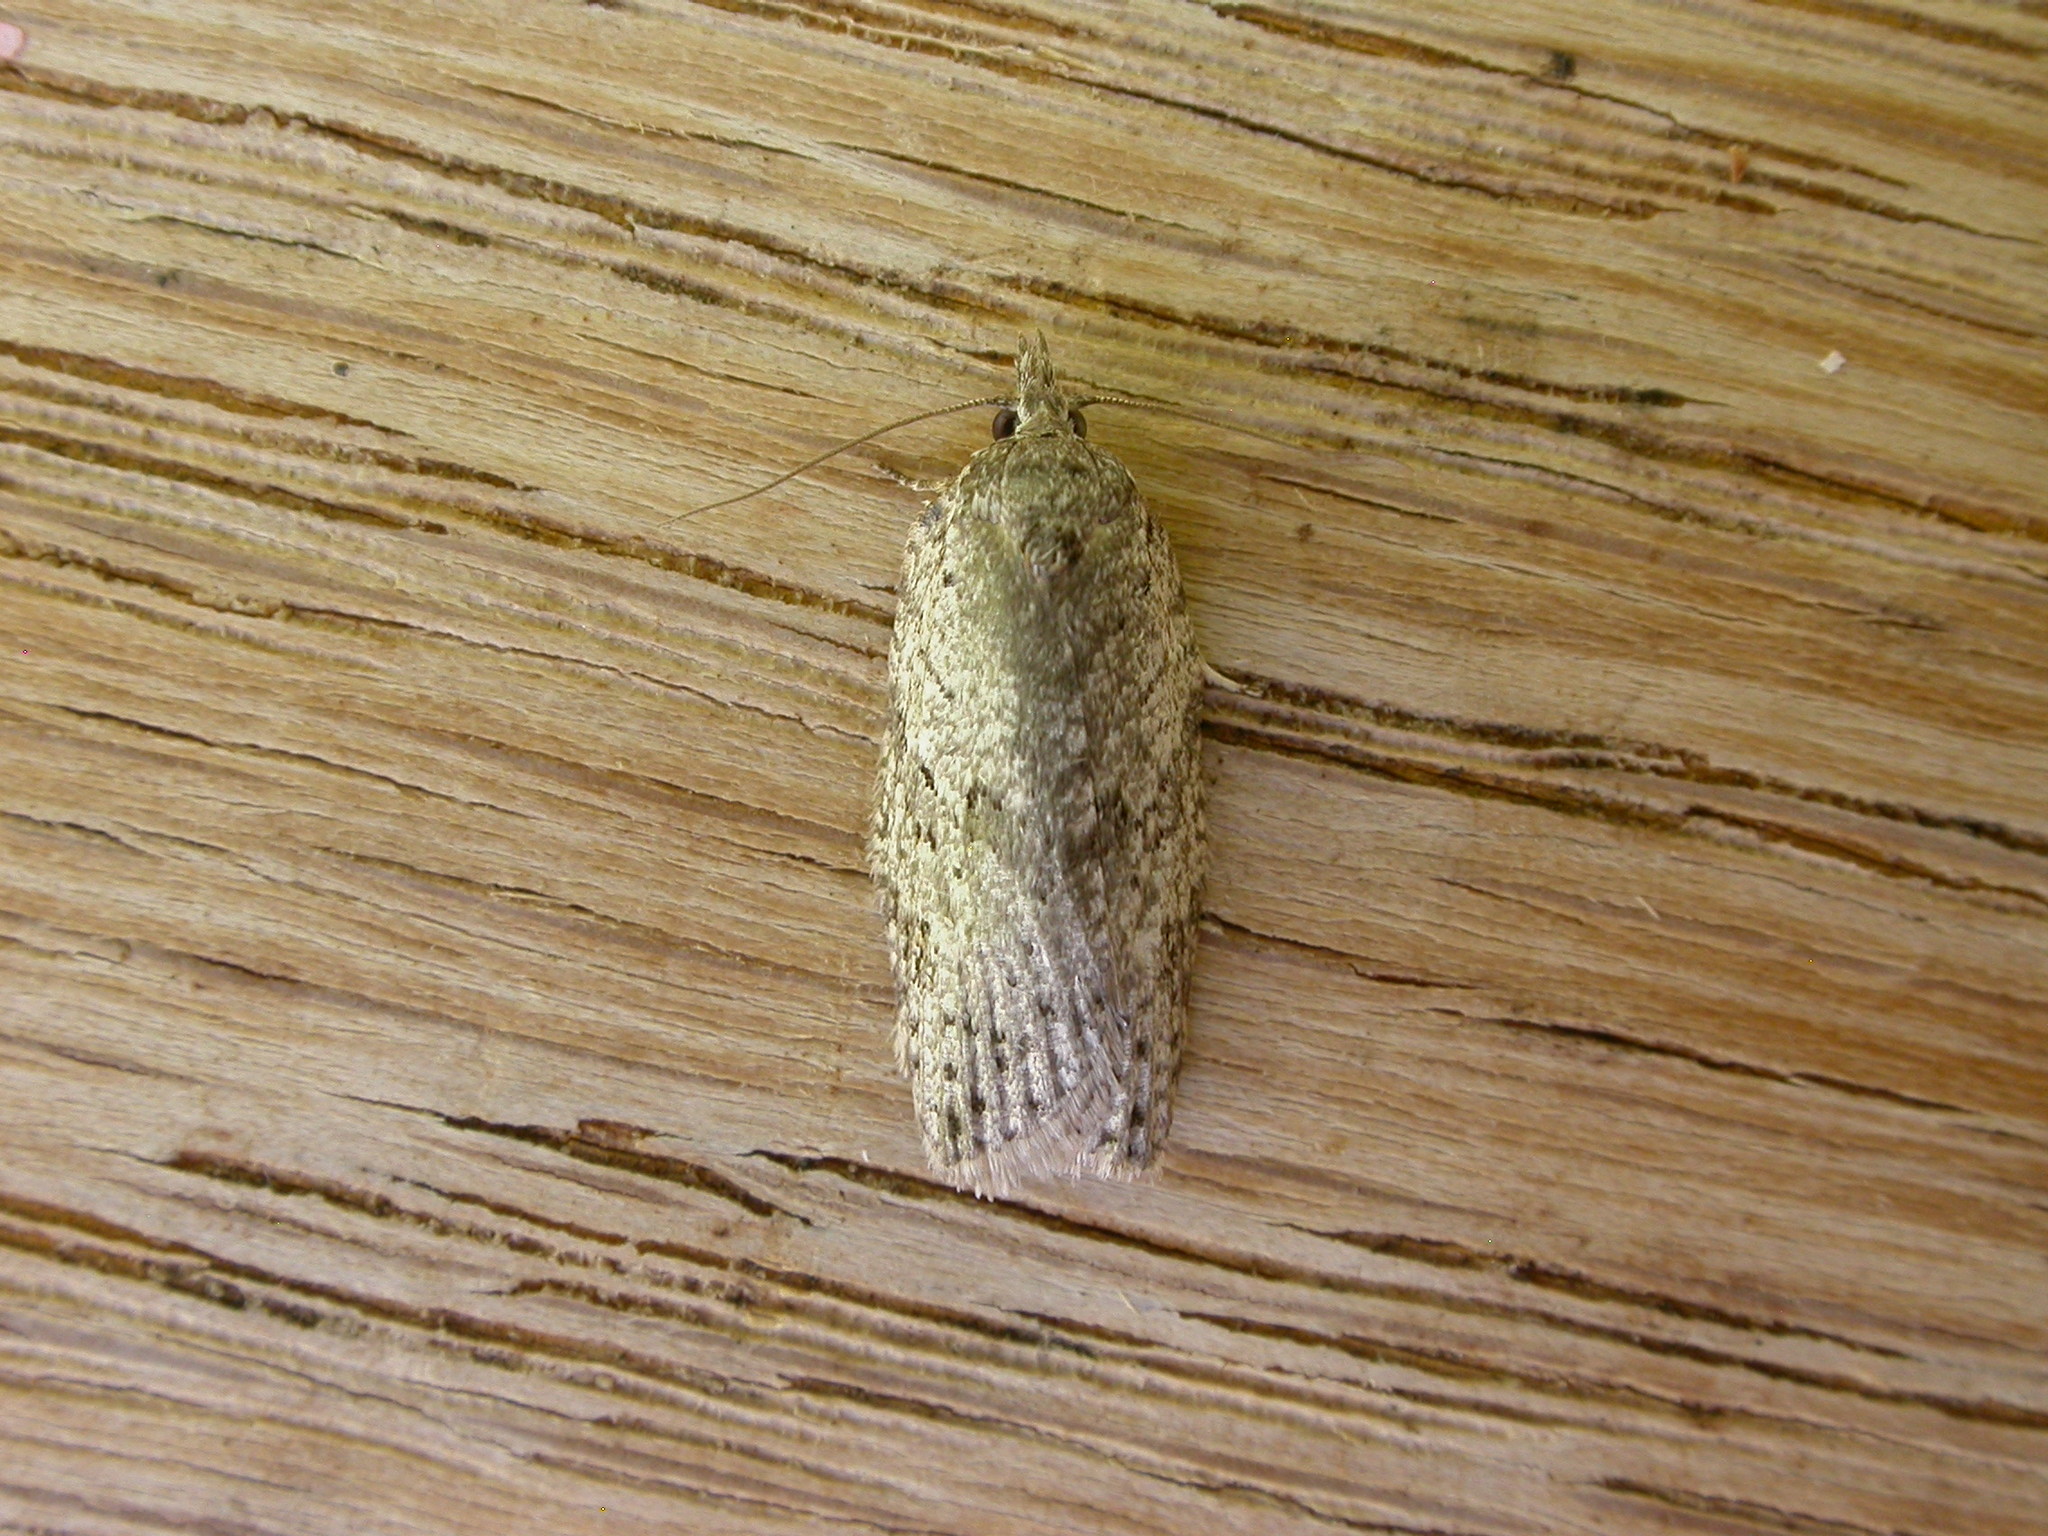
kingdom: Animalia
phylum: Arthropoda
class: Insecta
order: Lepidoptera
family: Tortricidae
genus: Isotenes
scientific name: Isotenes miserana
